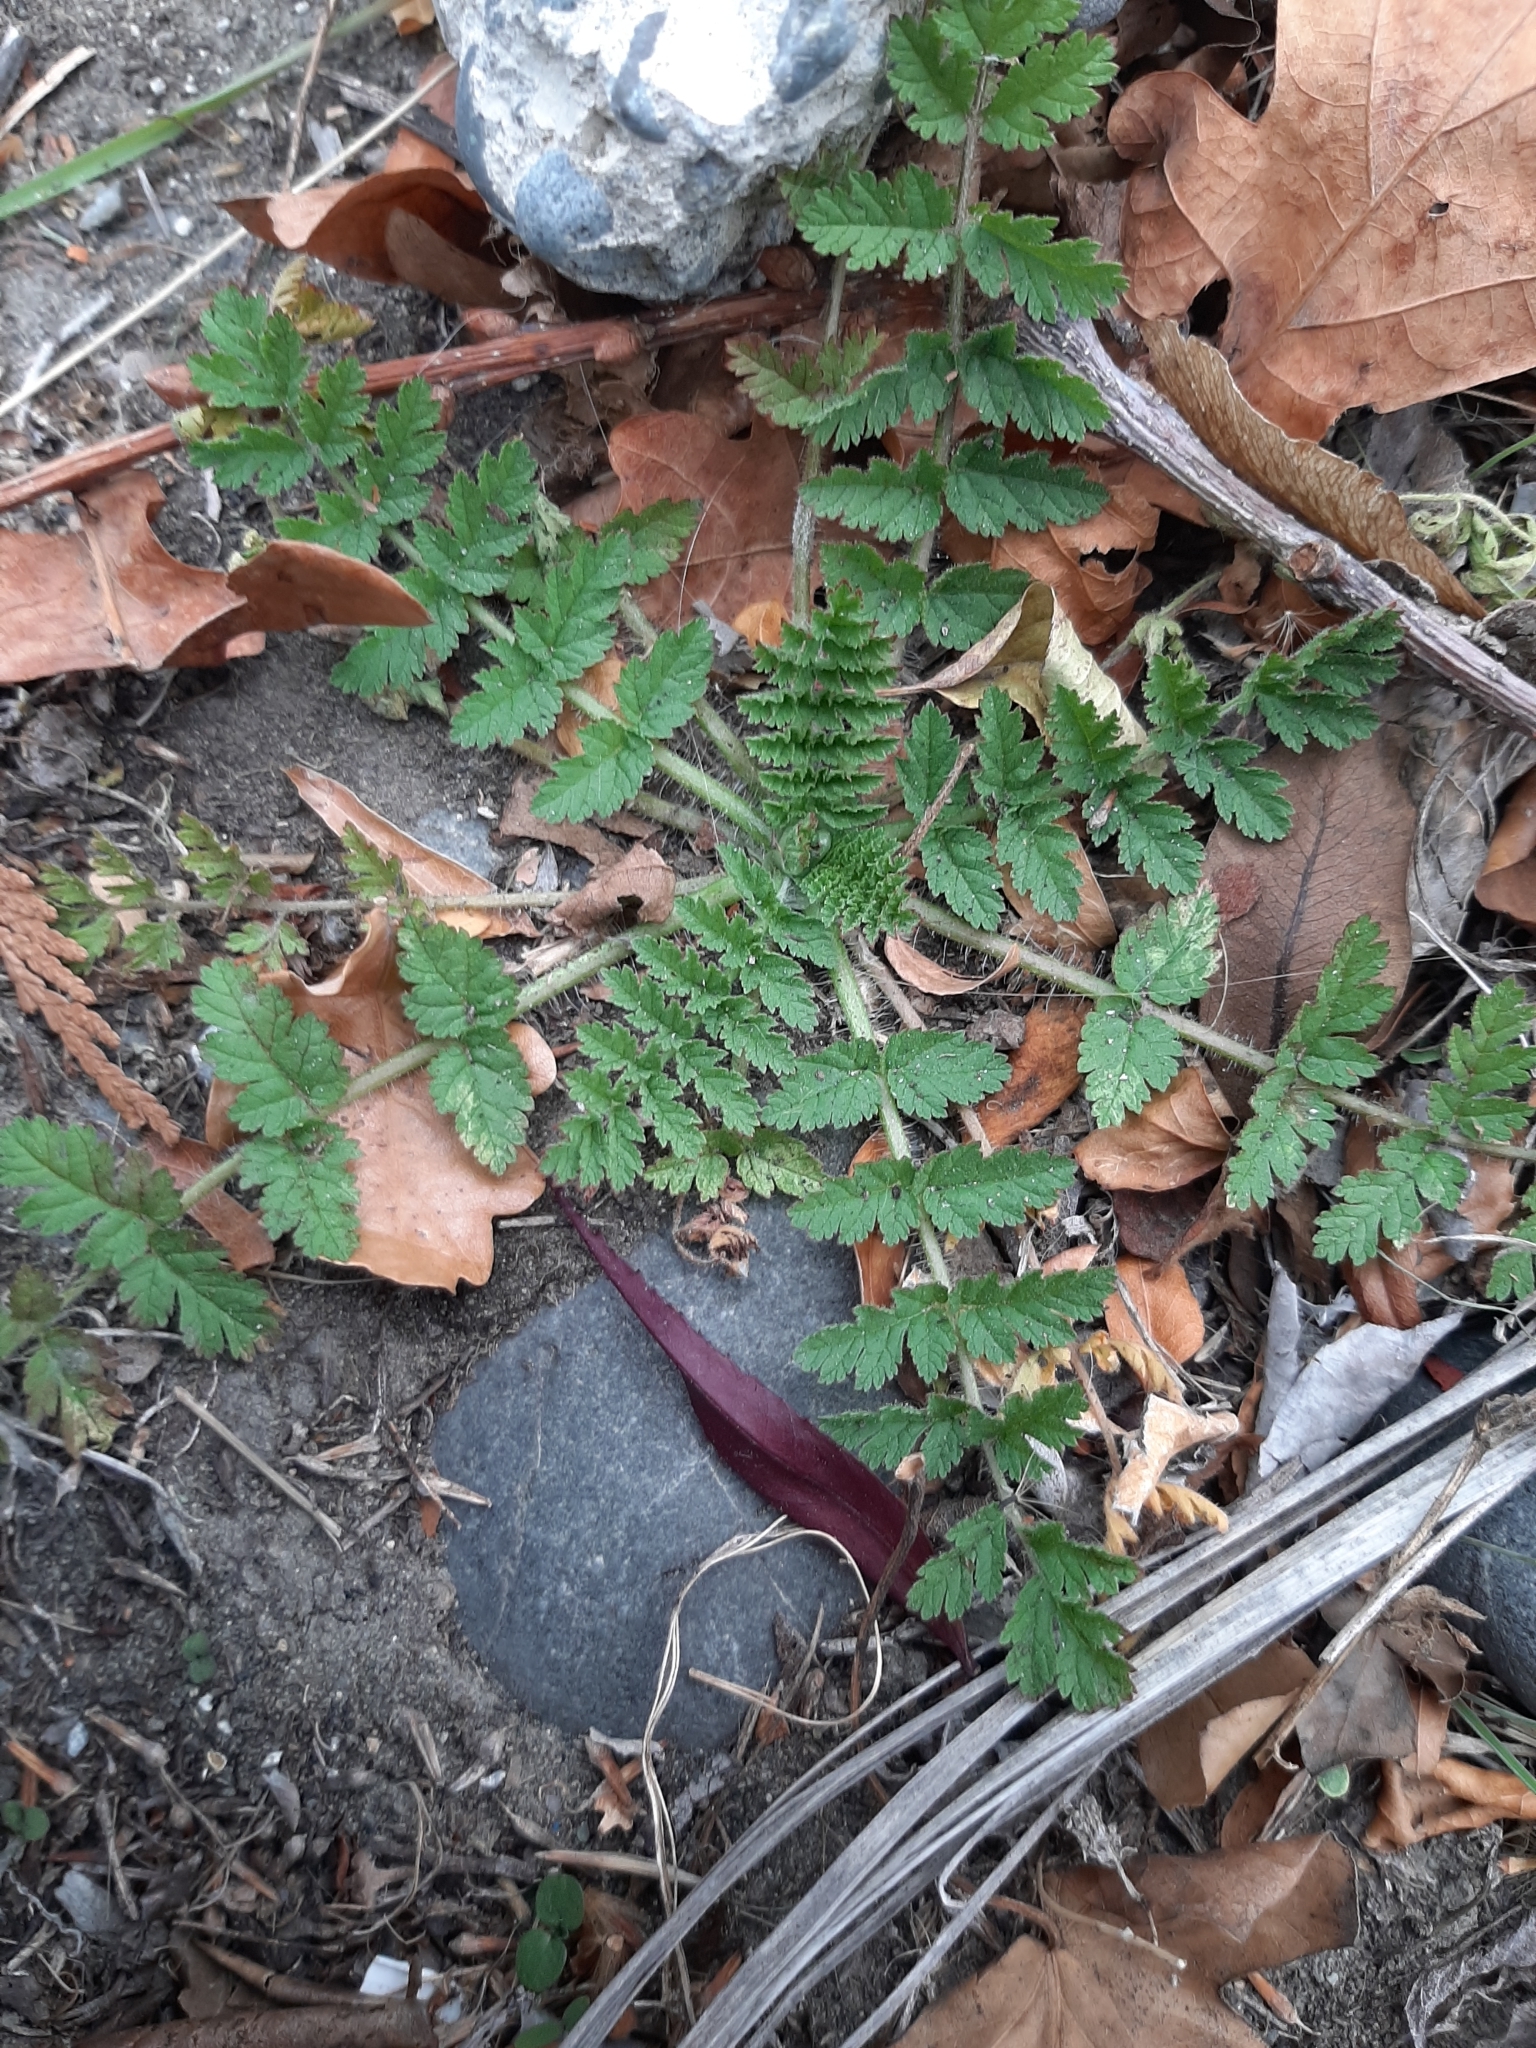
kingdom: Plantae
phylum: Tracheophyta
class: Magnoliopsida
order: Geraniales
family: Geraniaceae
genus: Erodium
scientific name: Erodium moschatum
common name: Musk stork's-bill
